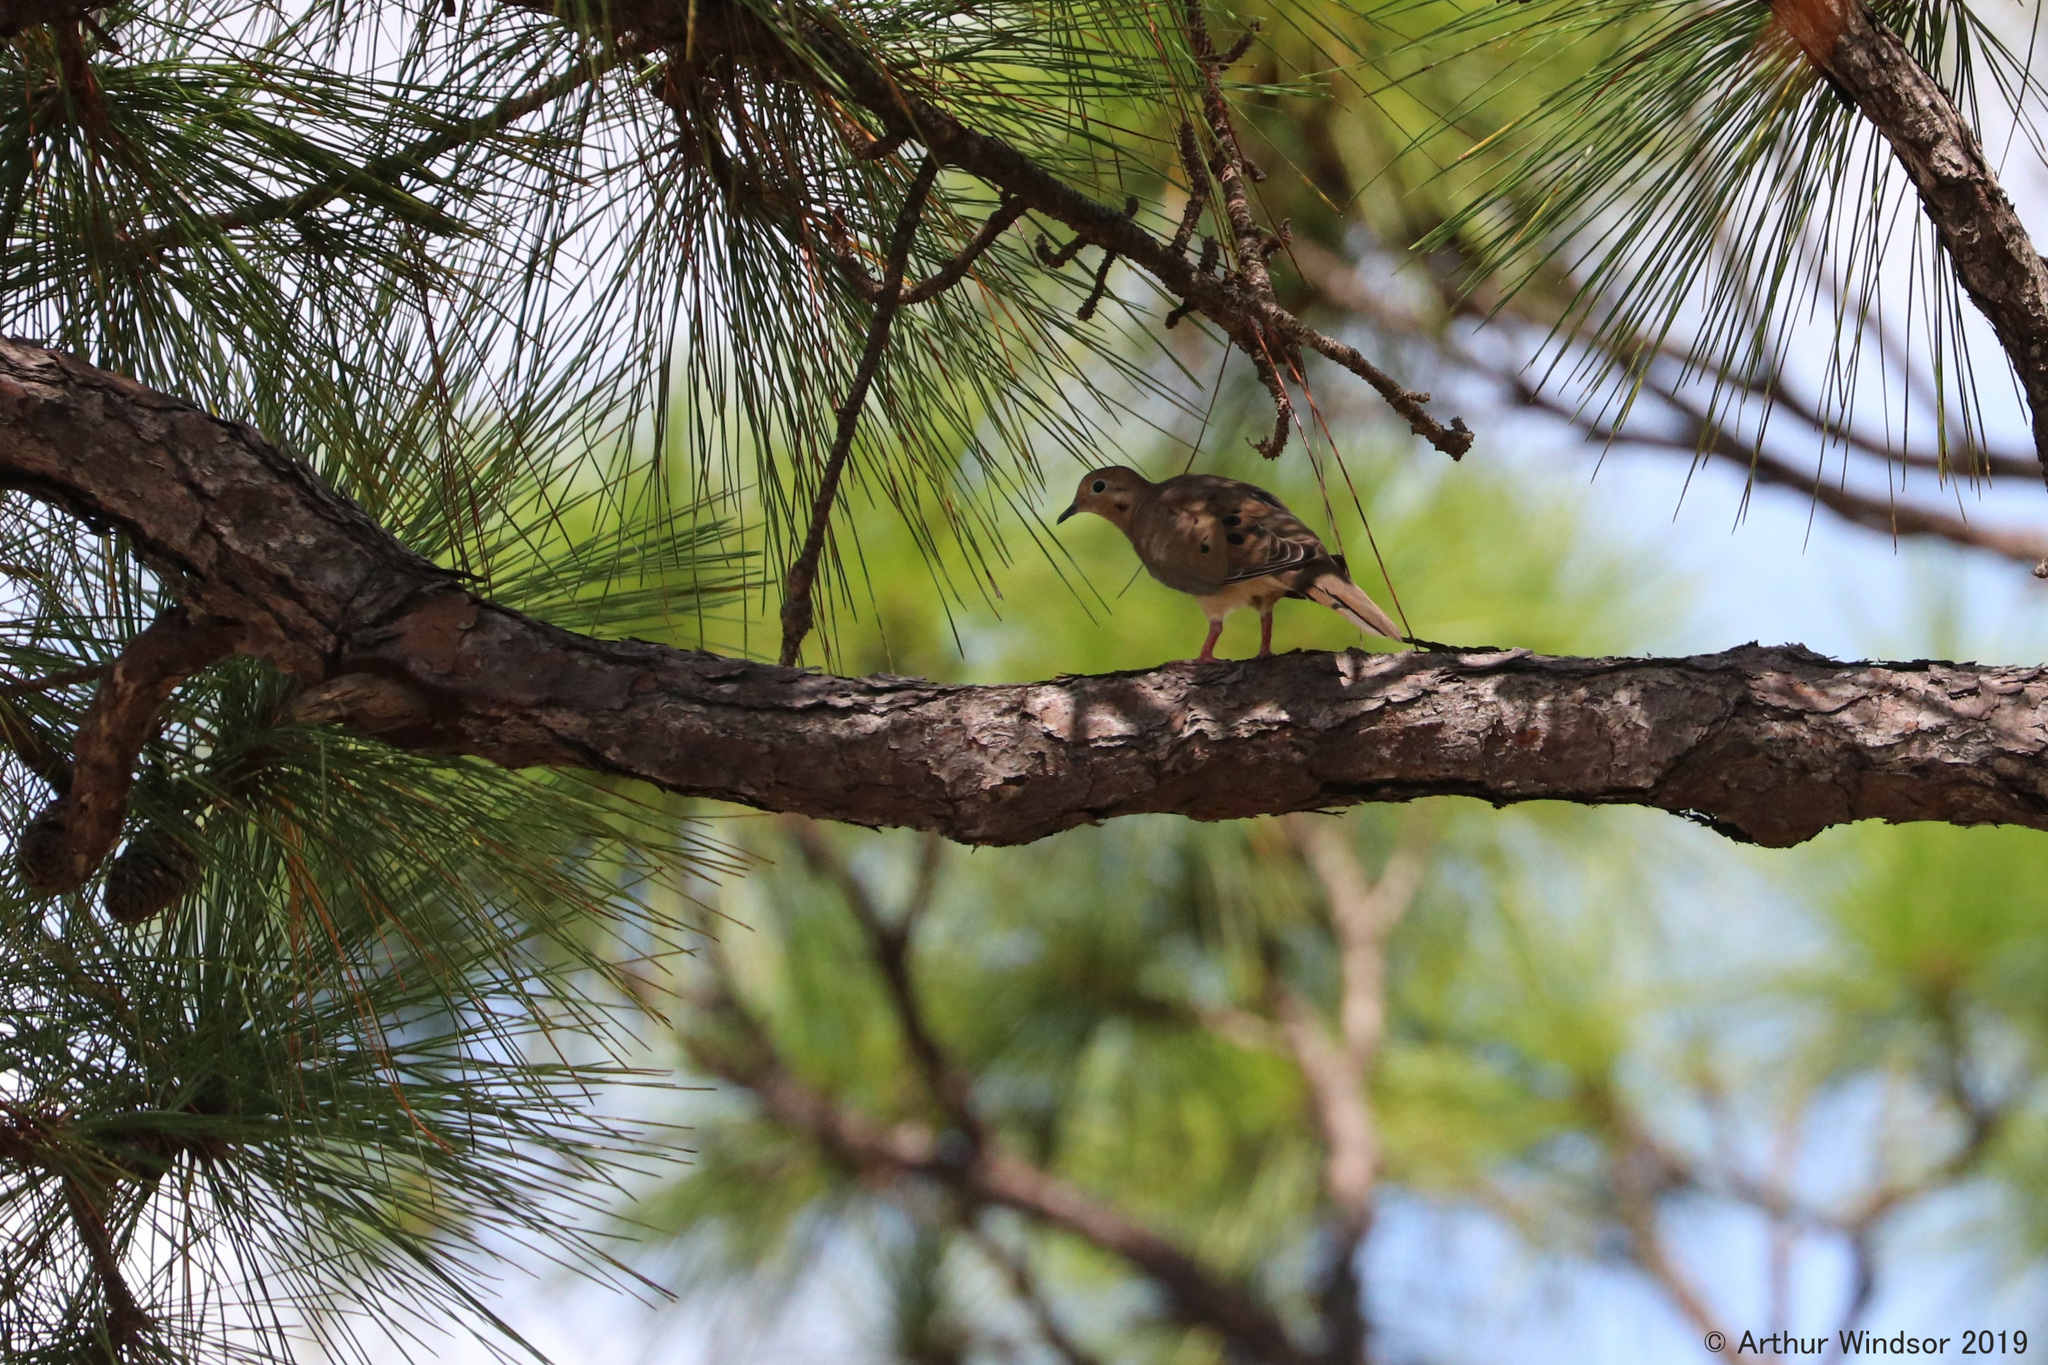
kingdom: Animalia
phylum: Chordata
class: Aves
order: Columbiformes
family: Columbidae
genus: Zenaida
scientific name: Zenaida macroura
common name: Mourning dove
